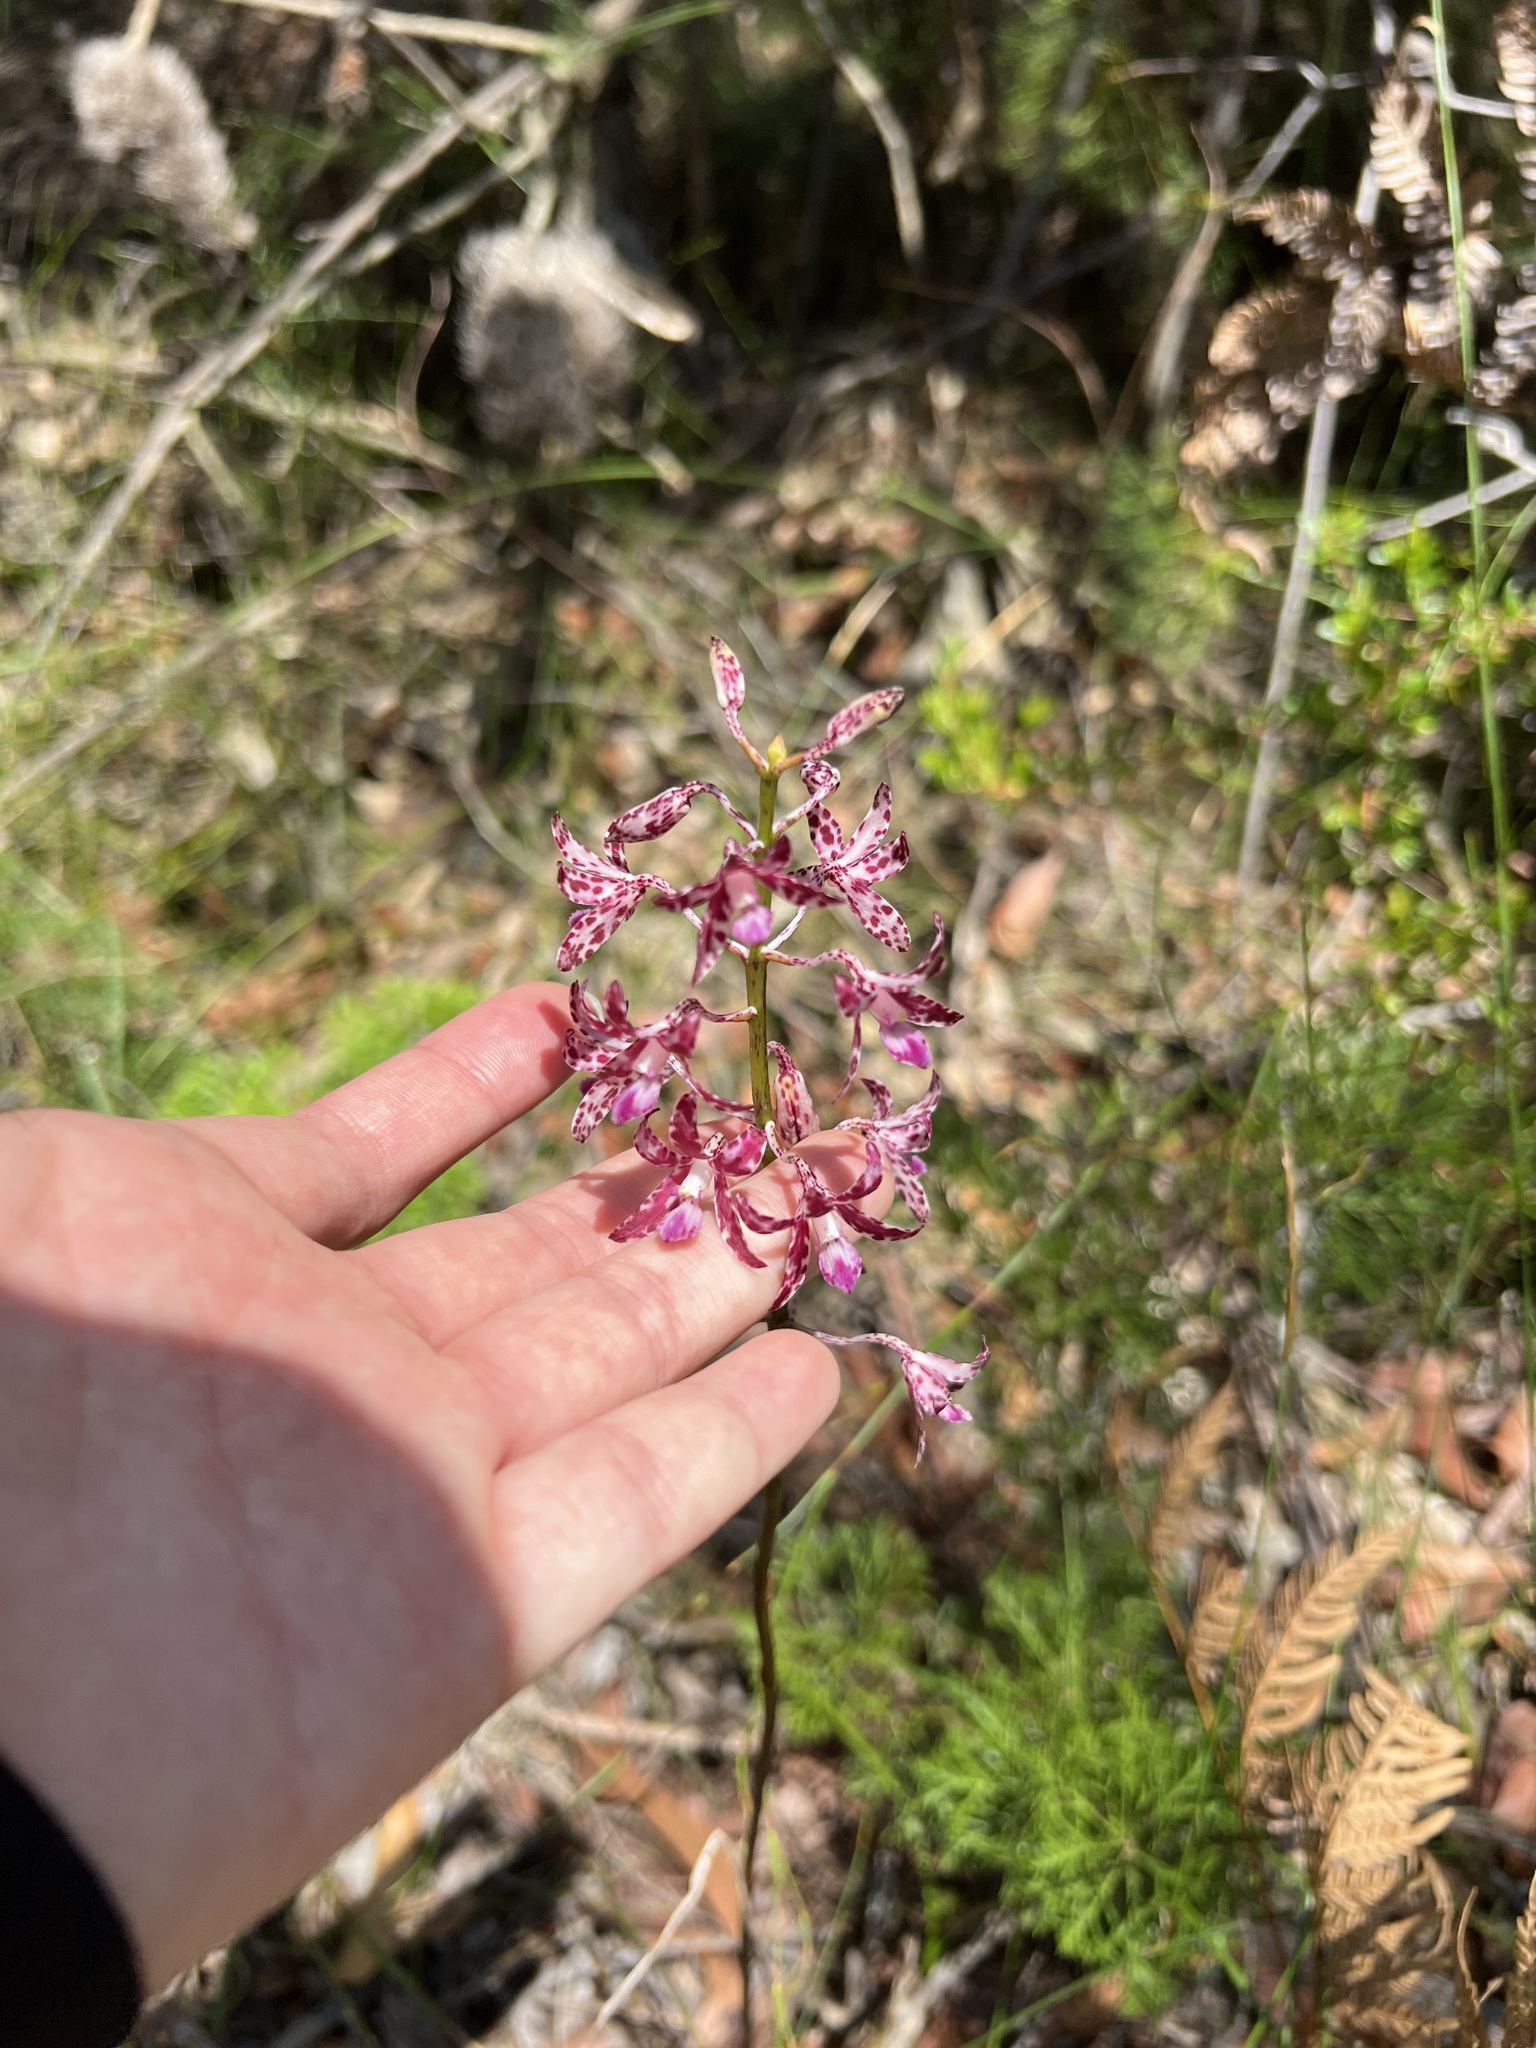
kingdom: Plantae
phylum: Tracheophyta
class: Liliopsida
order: Asparagales
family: Orchidaceae
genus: Dipodium
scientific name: Dipodium variegatum
